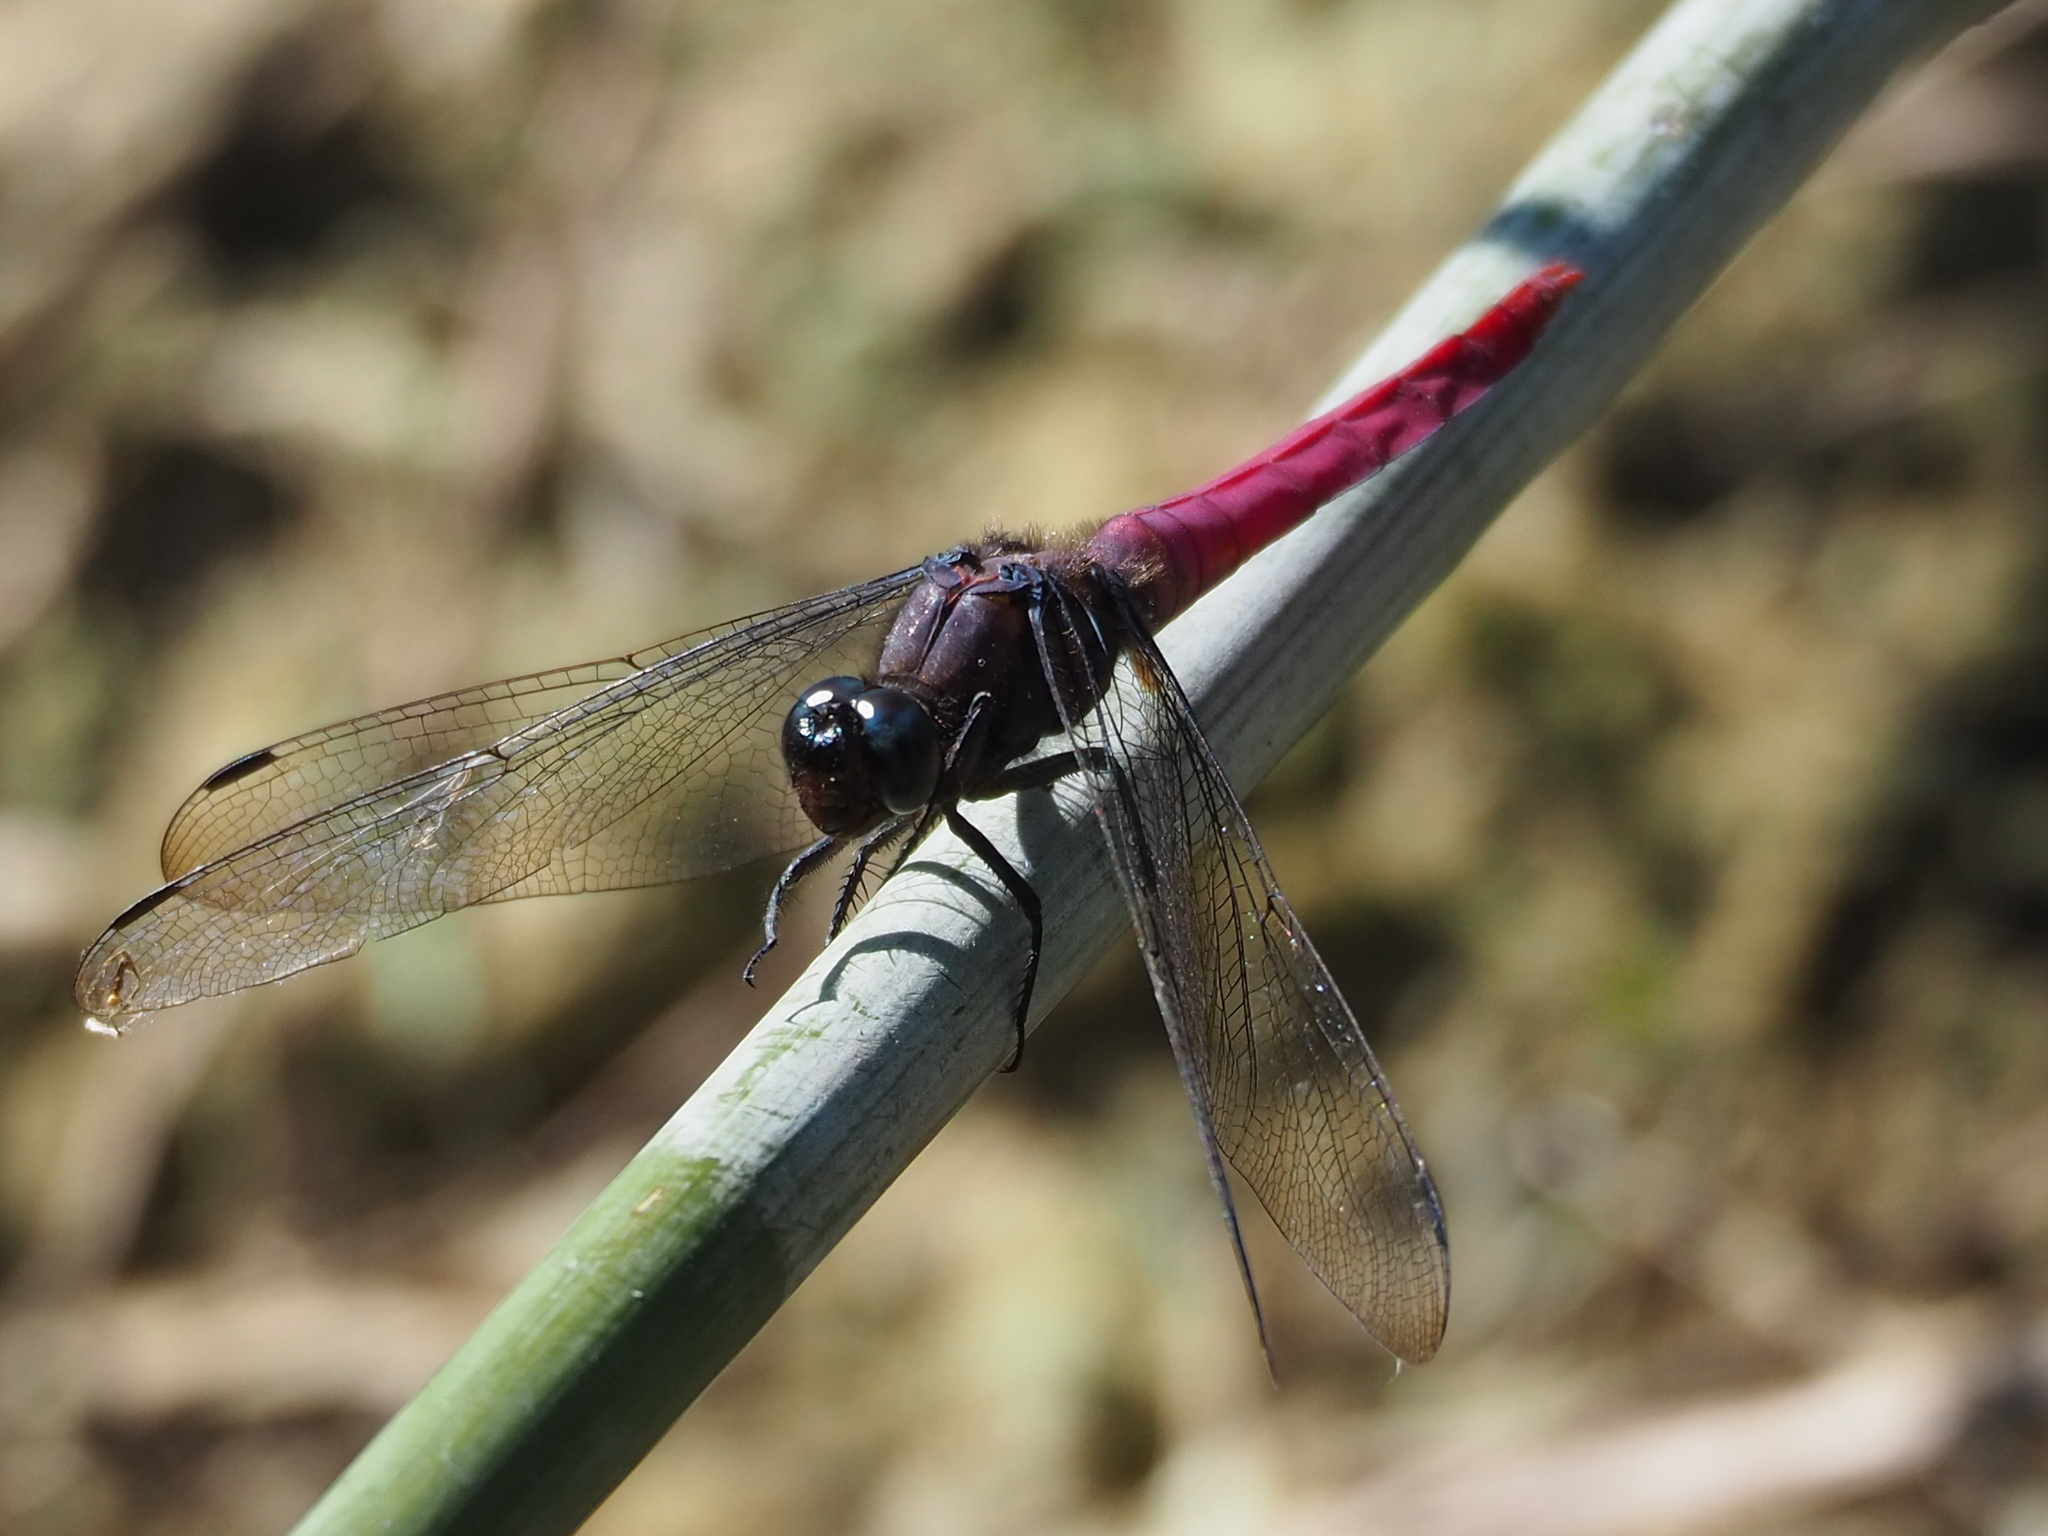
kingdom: Animalia
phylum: Arthropoda
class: Insecta
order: Odonata
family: Libellulidae
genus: Orthetrum
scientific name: Orthetrum pruinosum
